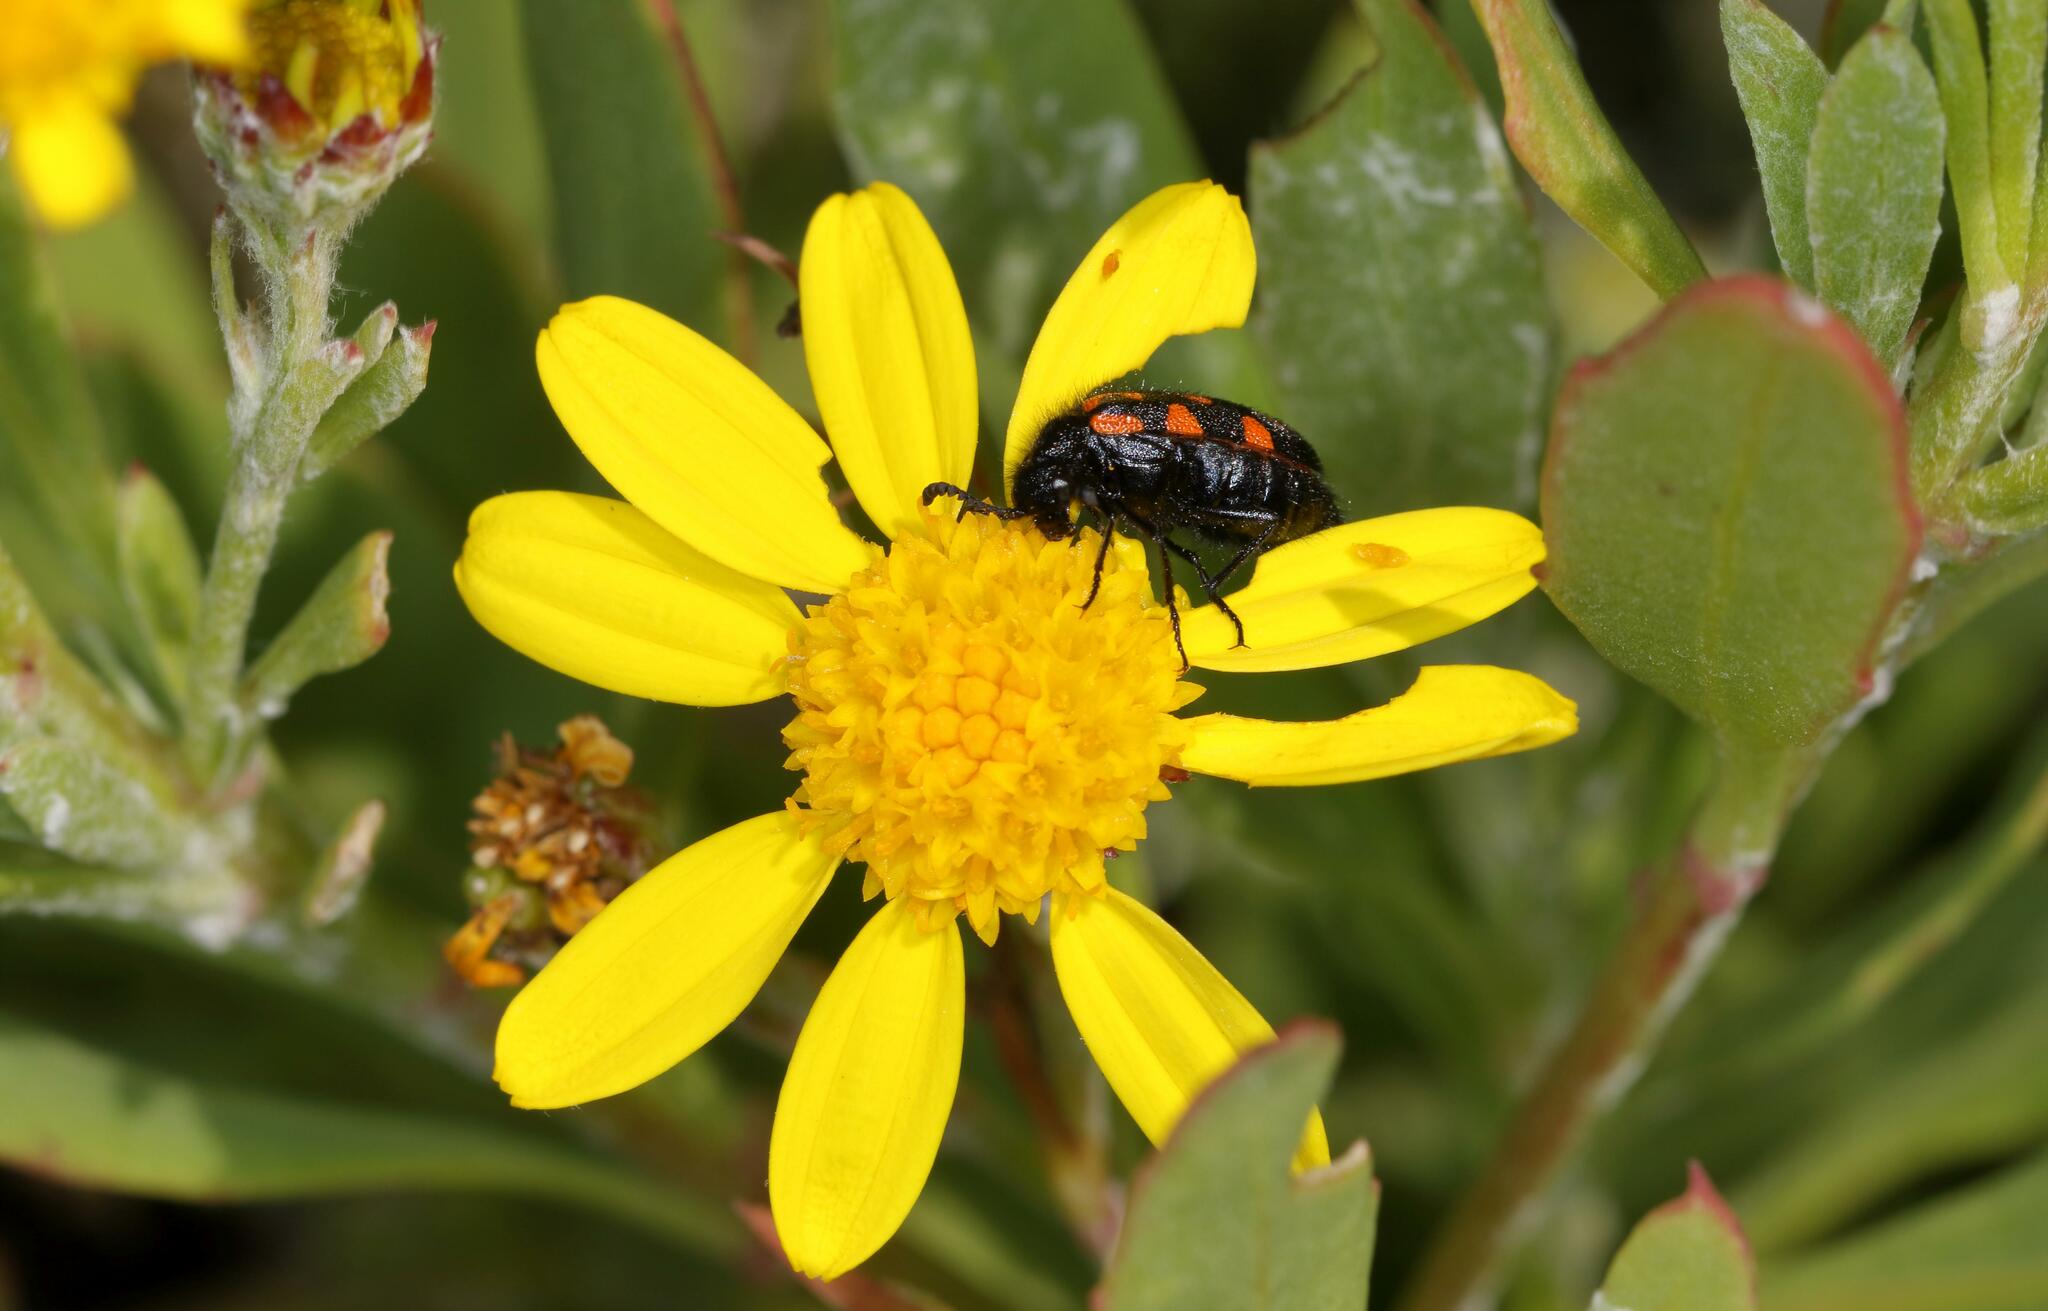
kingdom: Plantae
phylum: Tracheophyta
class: Magnoliopsida
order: Asterales
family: Asteraceae
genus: Osteospermum
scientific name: Osteospermum moniliferum
